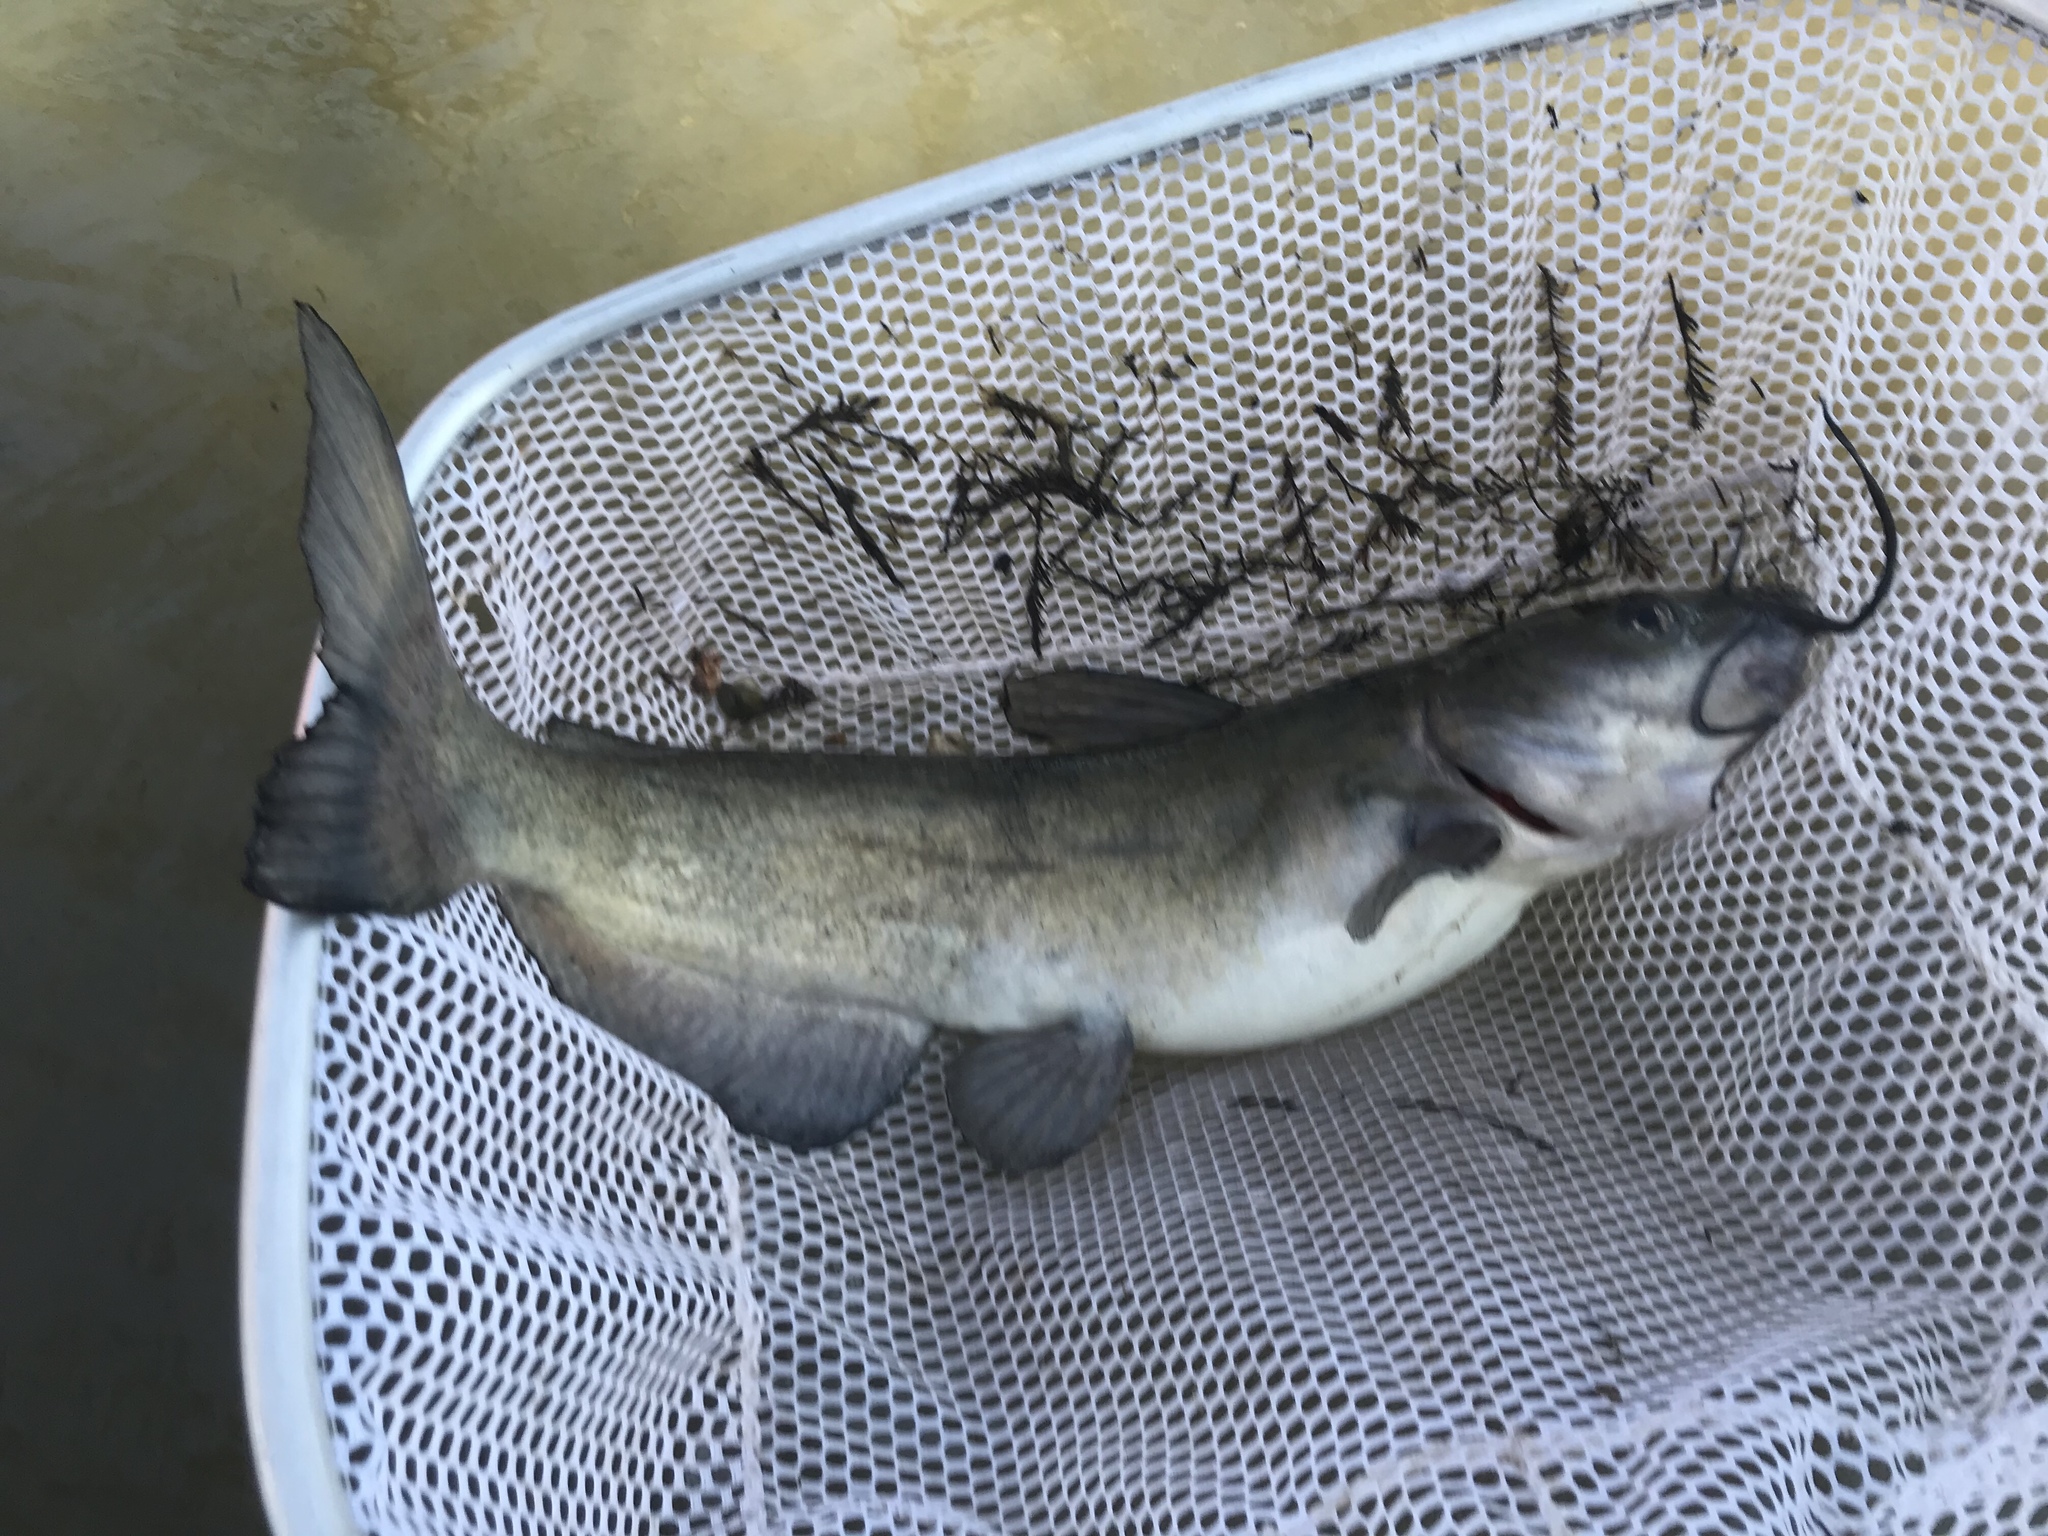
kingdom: Animalia
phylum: Chordata
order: Siluriformes
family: Ictaluridae
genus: Ictalurus
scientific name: Ictalurus punctatus
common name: Channel catfish
